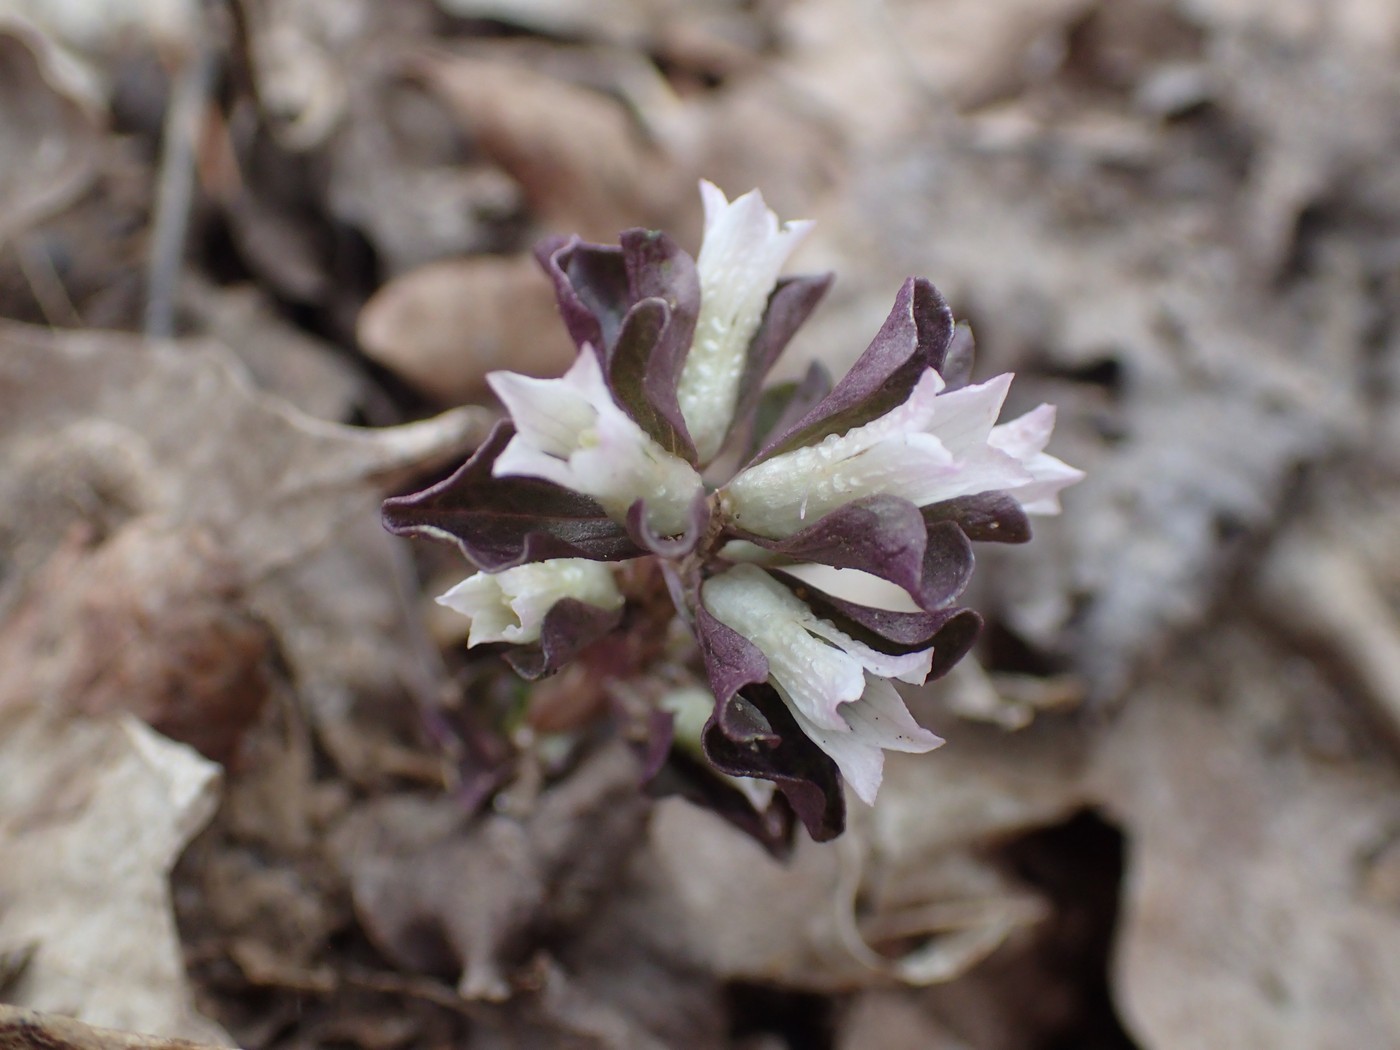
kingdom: Plantae
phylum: Tracheophyta
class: Magnoliopsida
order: Gentianales
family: Gentianaceae
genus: Obolaria
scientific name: Obolaria virginica
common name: Pennywort
